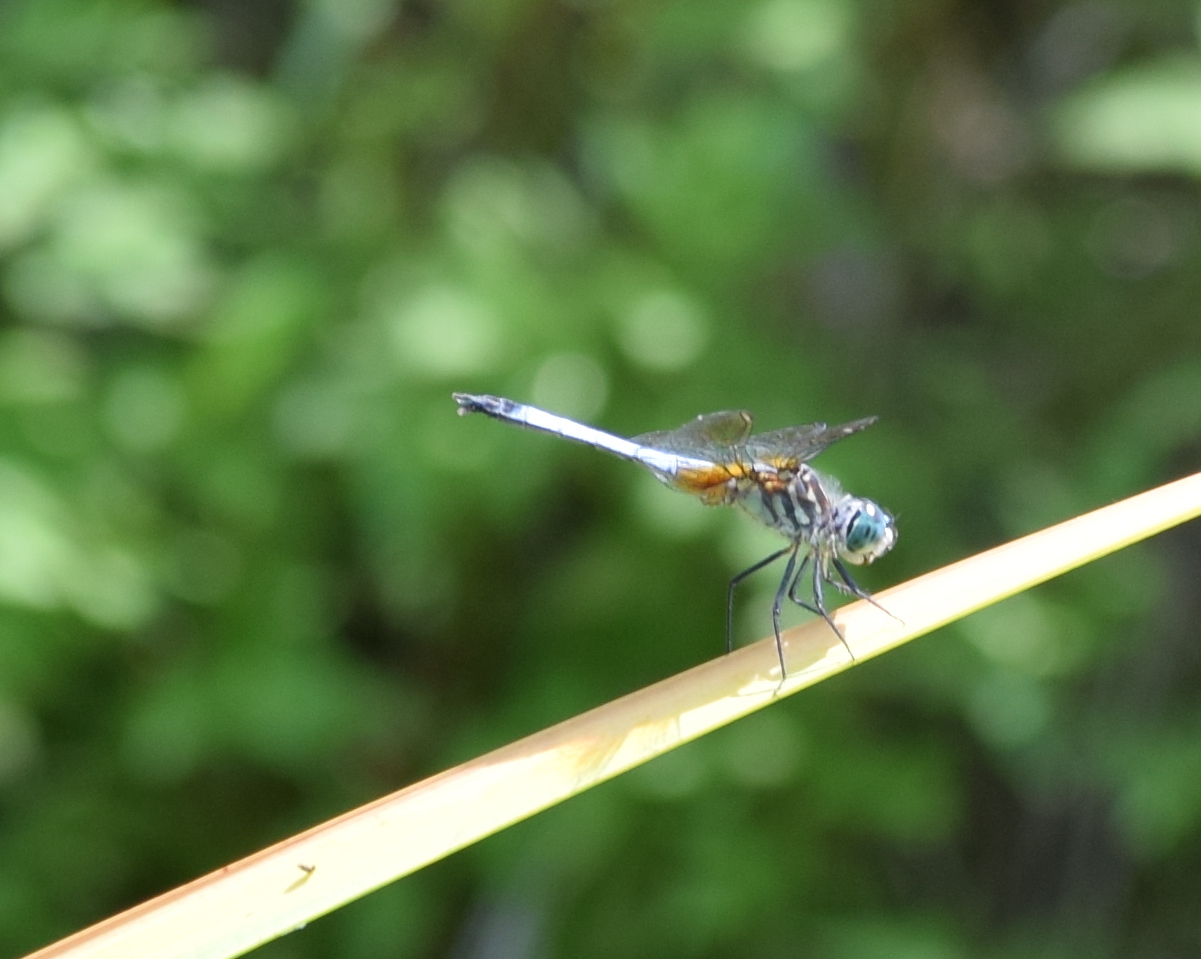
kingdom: Animalia
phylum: Arthropoda
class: Insecta
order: Odonata
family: Libellulidae
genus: Pachydiplax
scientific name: Pachydiplax longipennis
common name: Blue dasher
